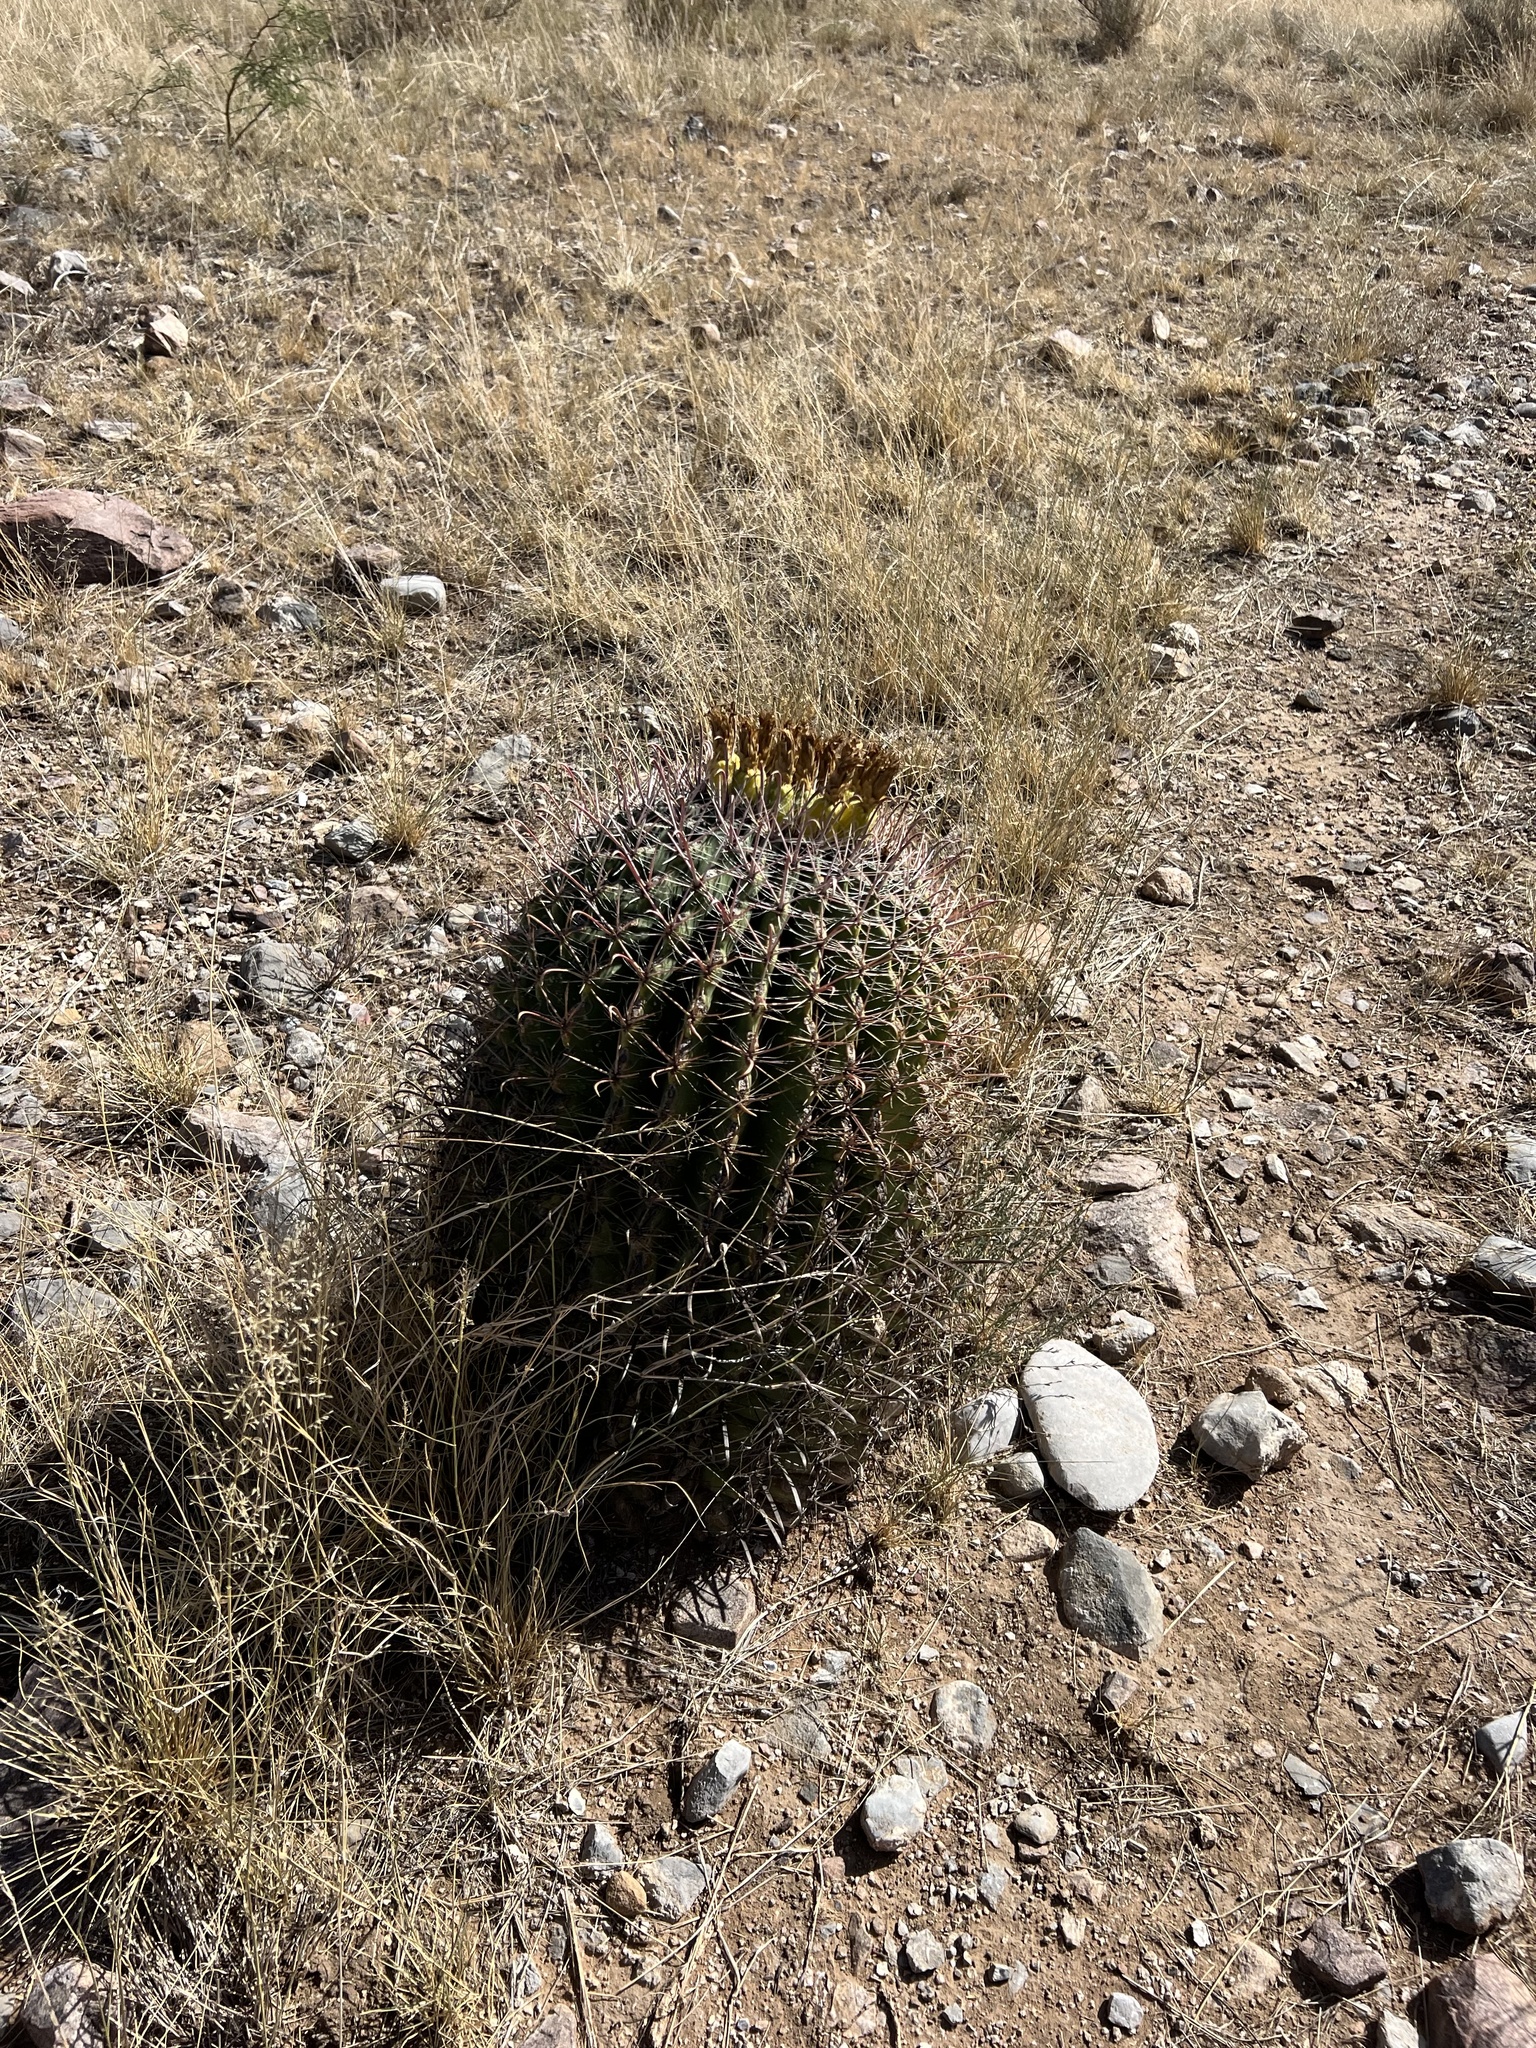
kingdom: Plantae
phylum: Tracheophyta
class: Magnoliopsida
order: Caryophyllales
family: Cactaceae
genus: Ferocactus
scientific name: Ferocactus wislizeni
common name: Candy barrel cactus
